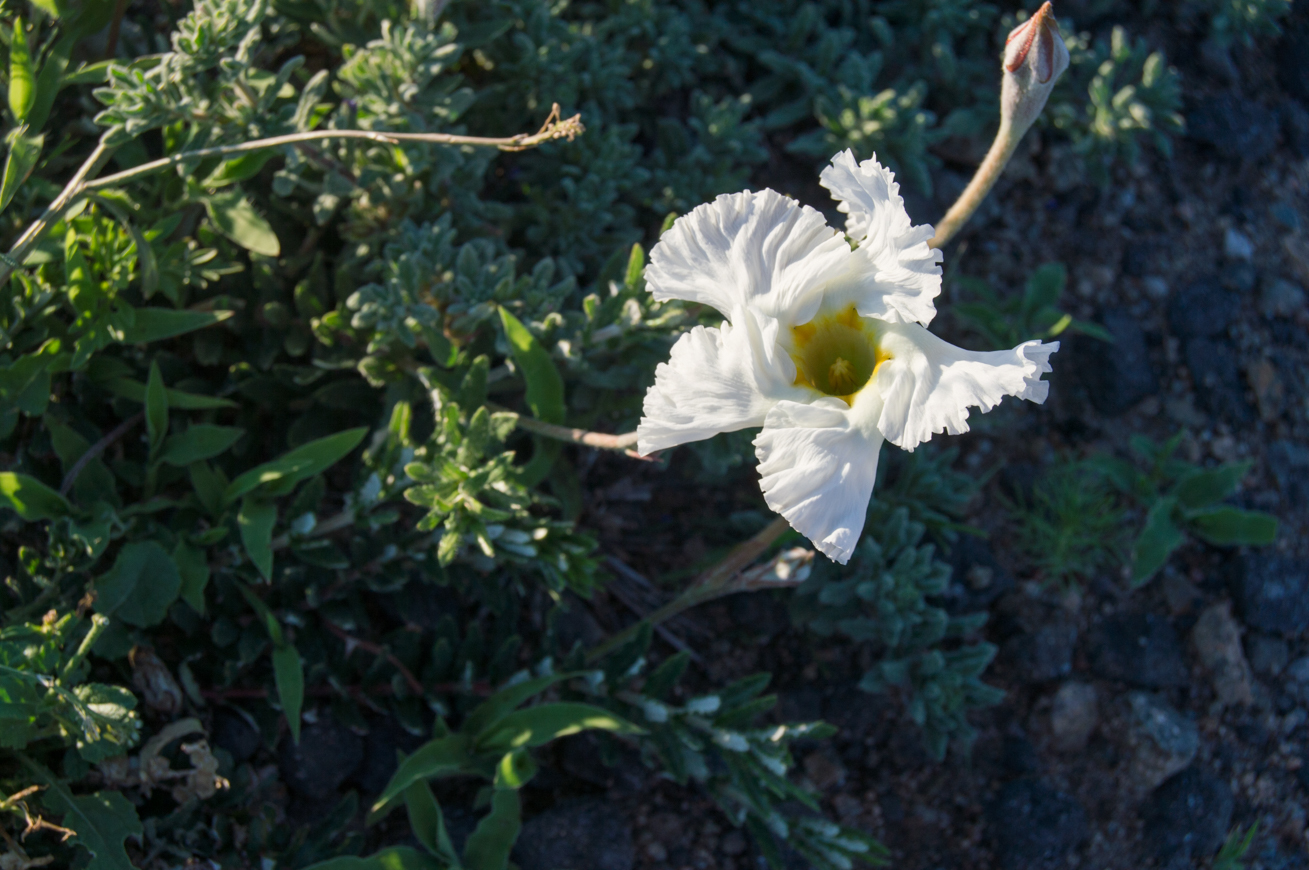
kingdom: Plantae
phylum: Tracheophyta
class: Magnoliopsida
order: Gentianales
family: Apocynaceae
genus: Mandevilla
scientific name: Mandevilla petraea
